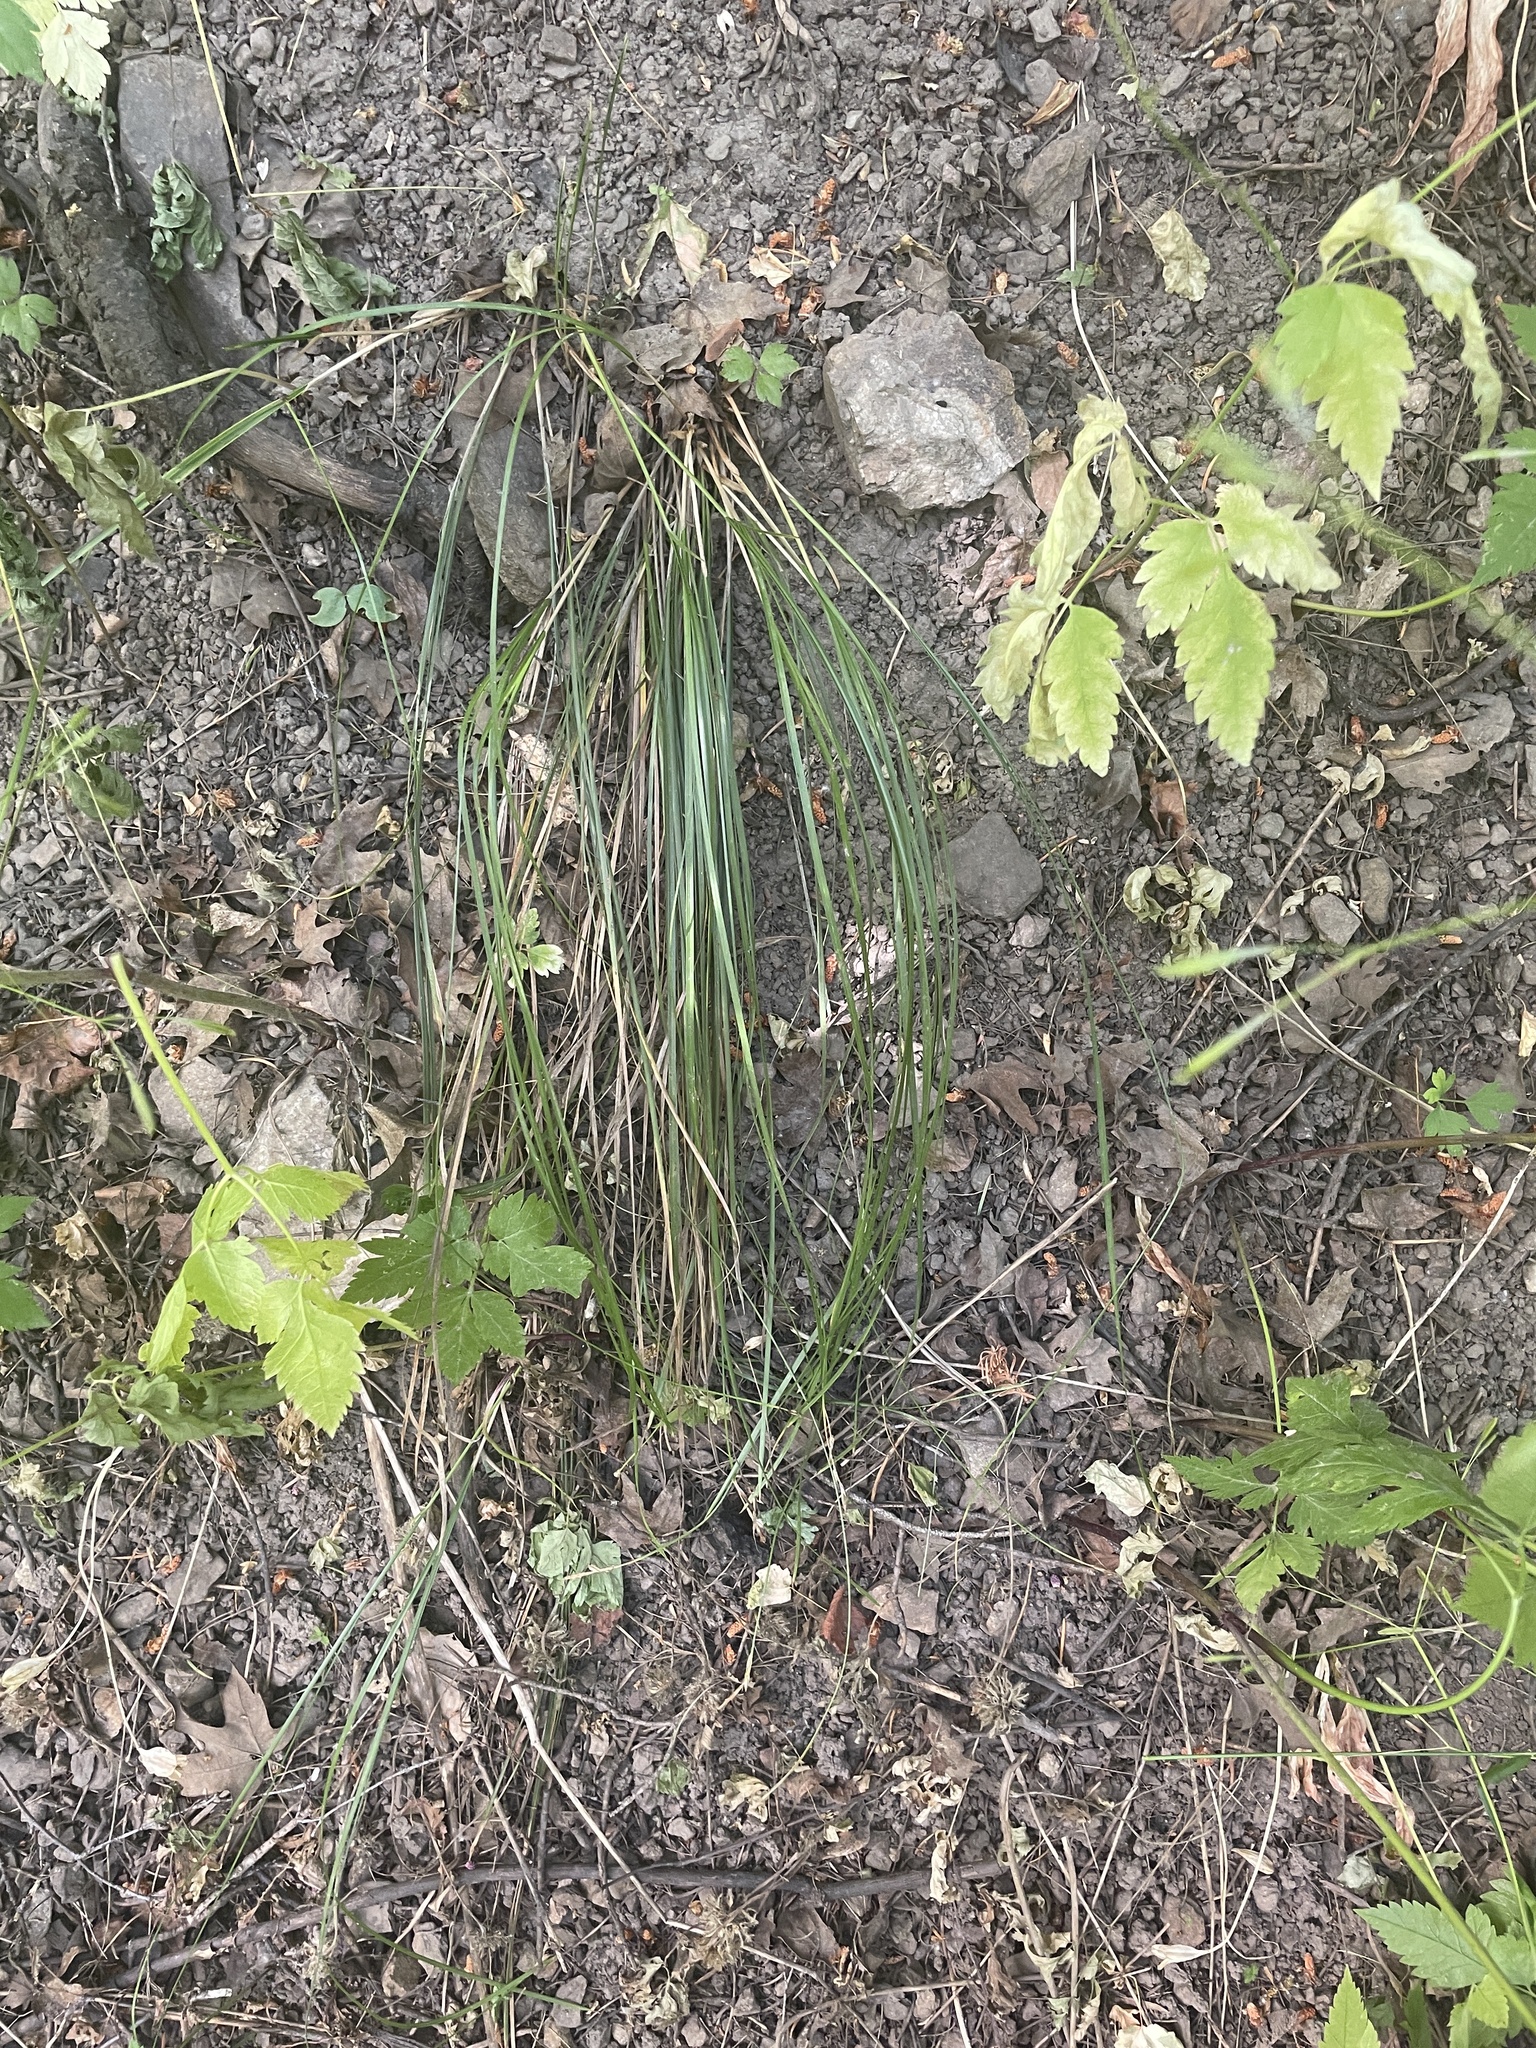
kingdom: Plantae
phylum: Tracheophyta
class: Liliopsida
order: Poales
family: Cyperaceae
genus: Carex
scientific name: Carex geyeri
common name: Elk sedge
